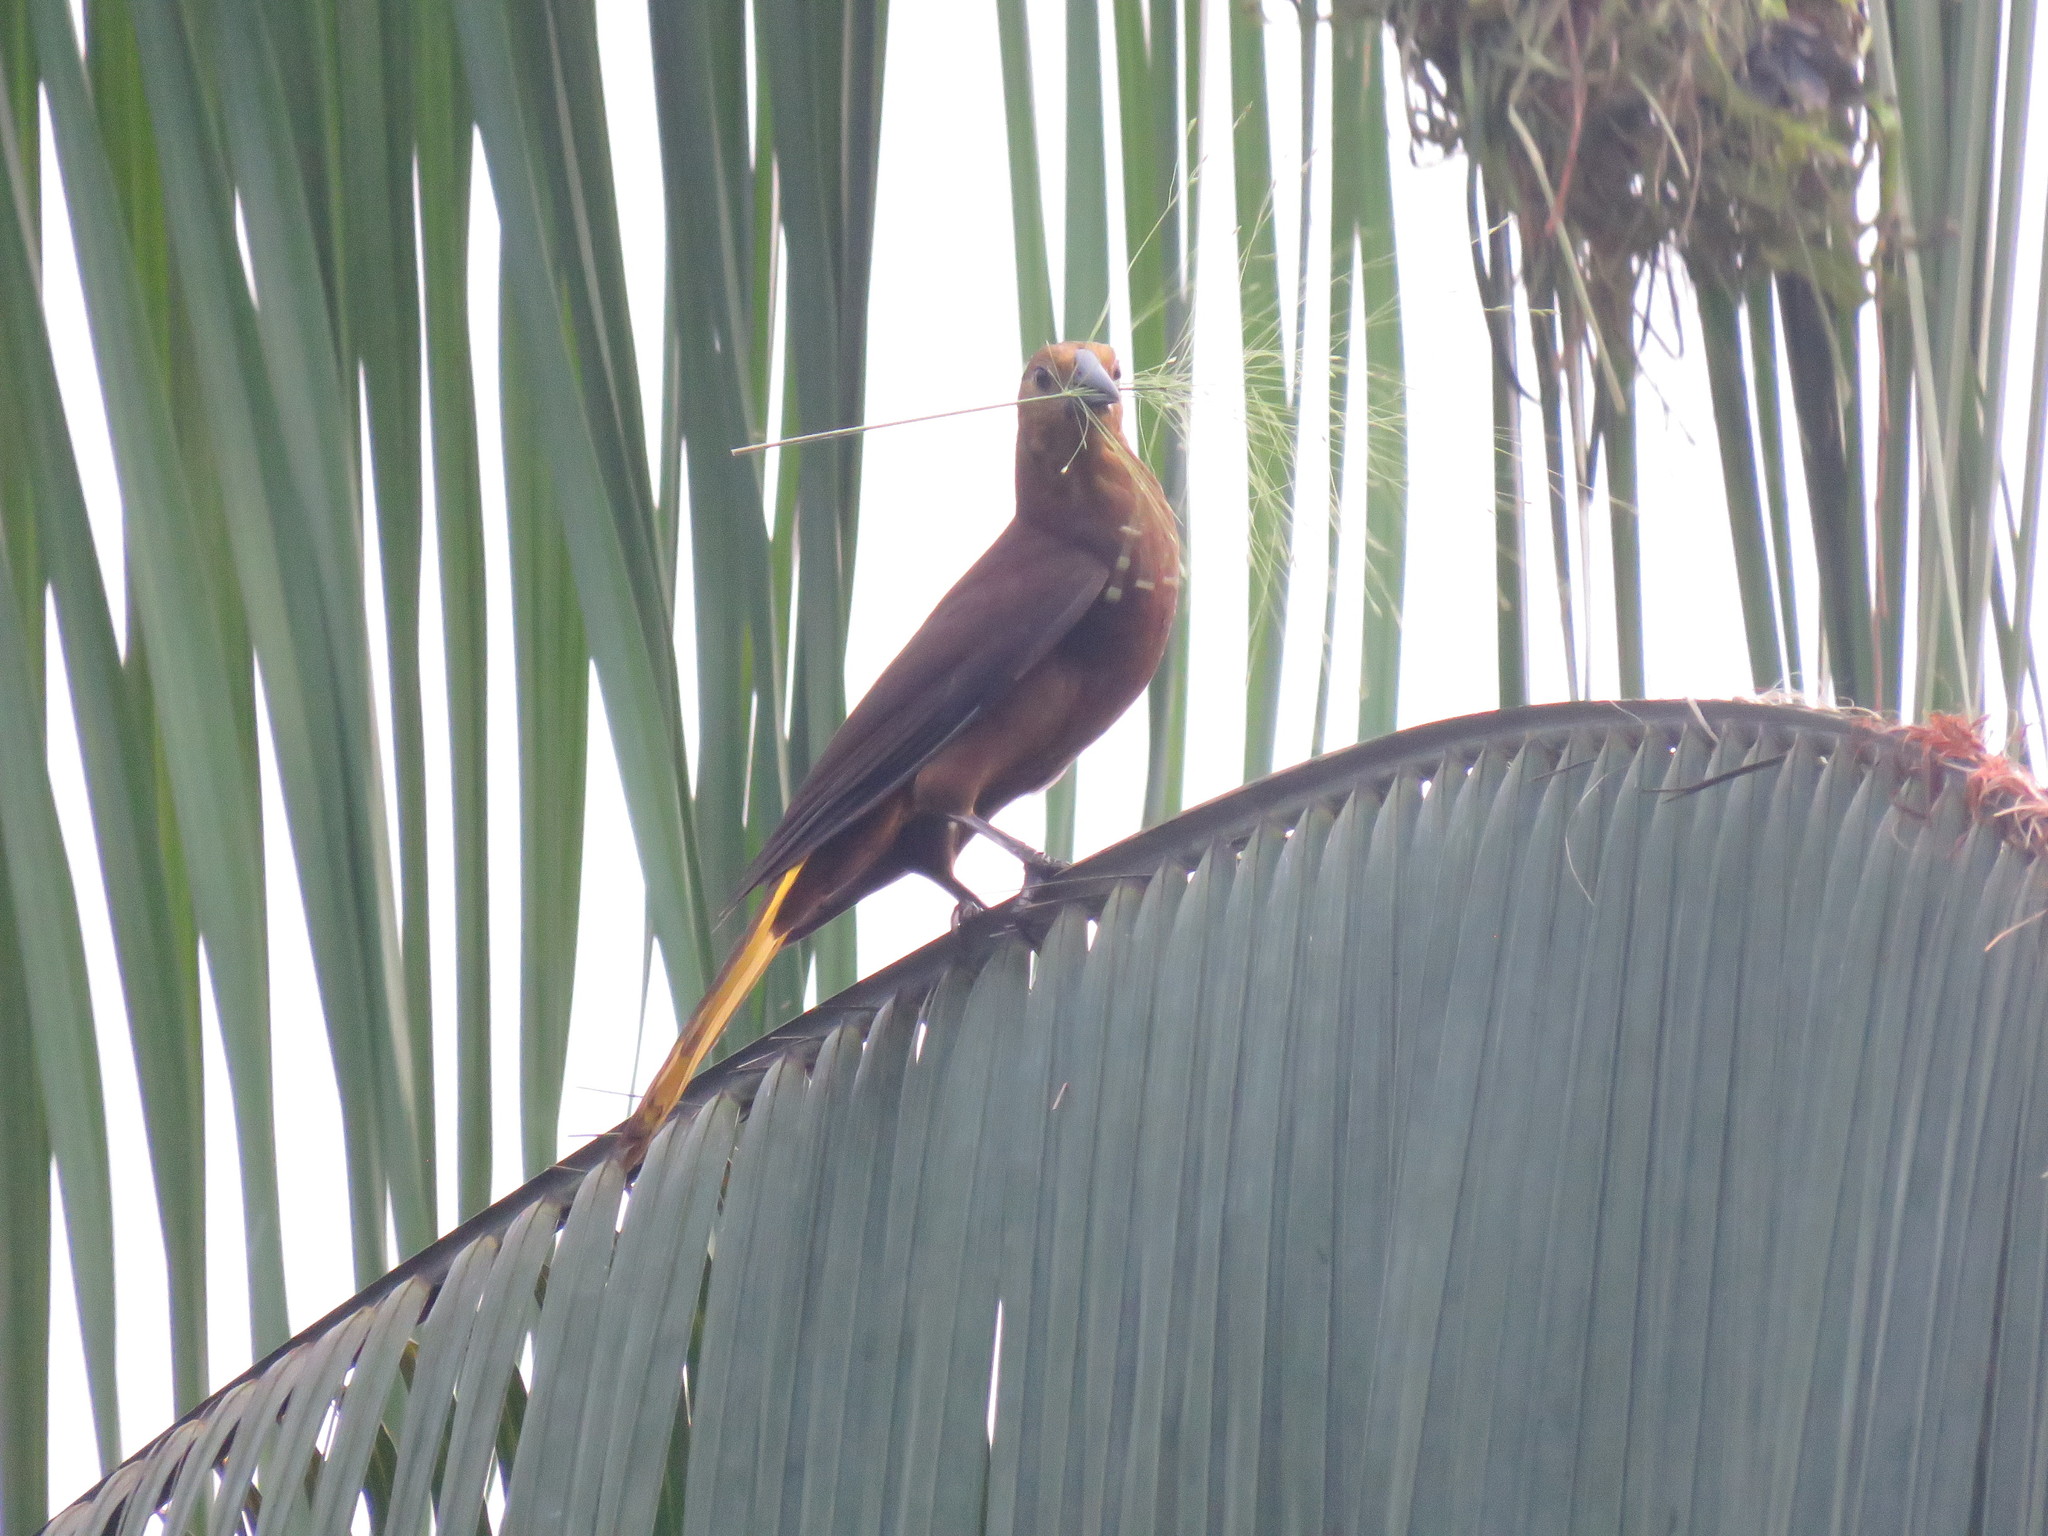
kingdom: Animalia
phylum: Chordata
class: Aves
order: Passeriformes
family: Icteridae
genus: Psarocolius
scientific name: Psarocolius angustifrons
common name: Russet-backed oropendola
